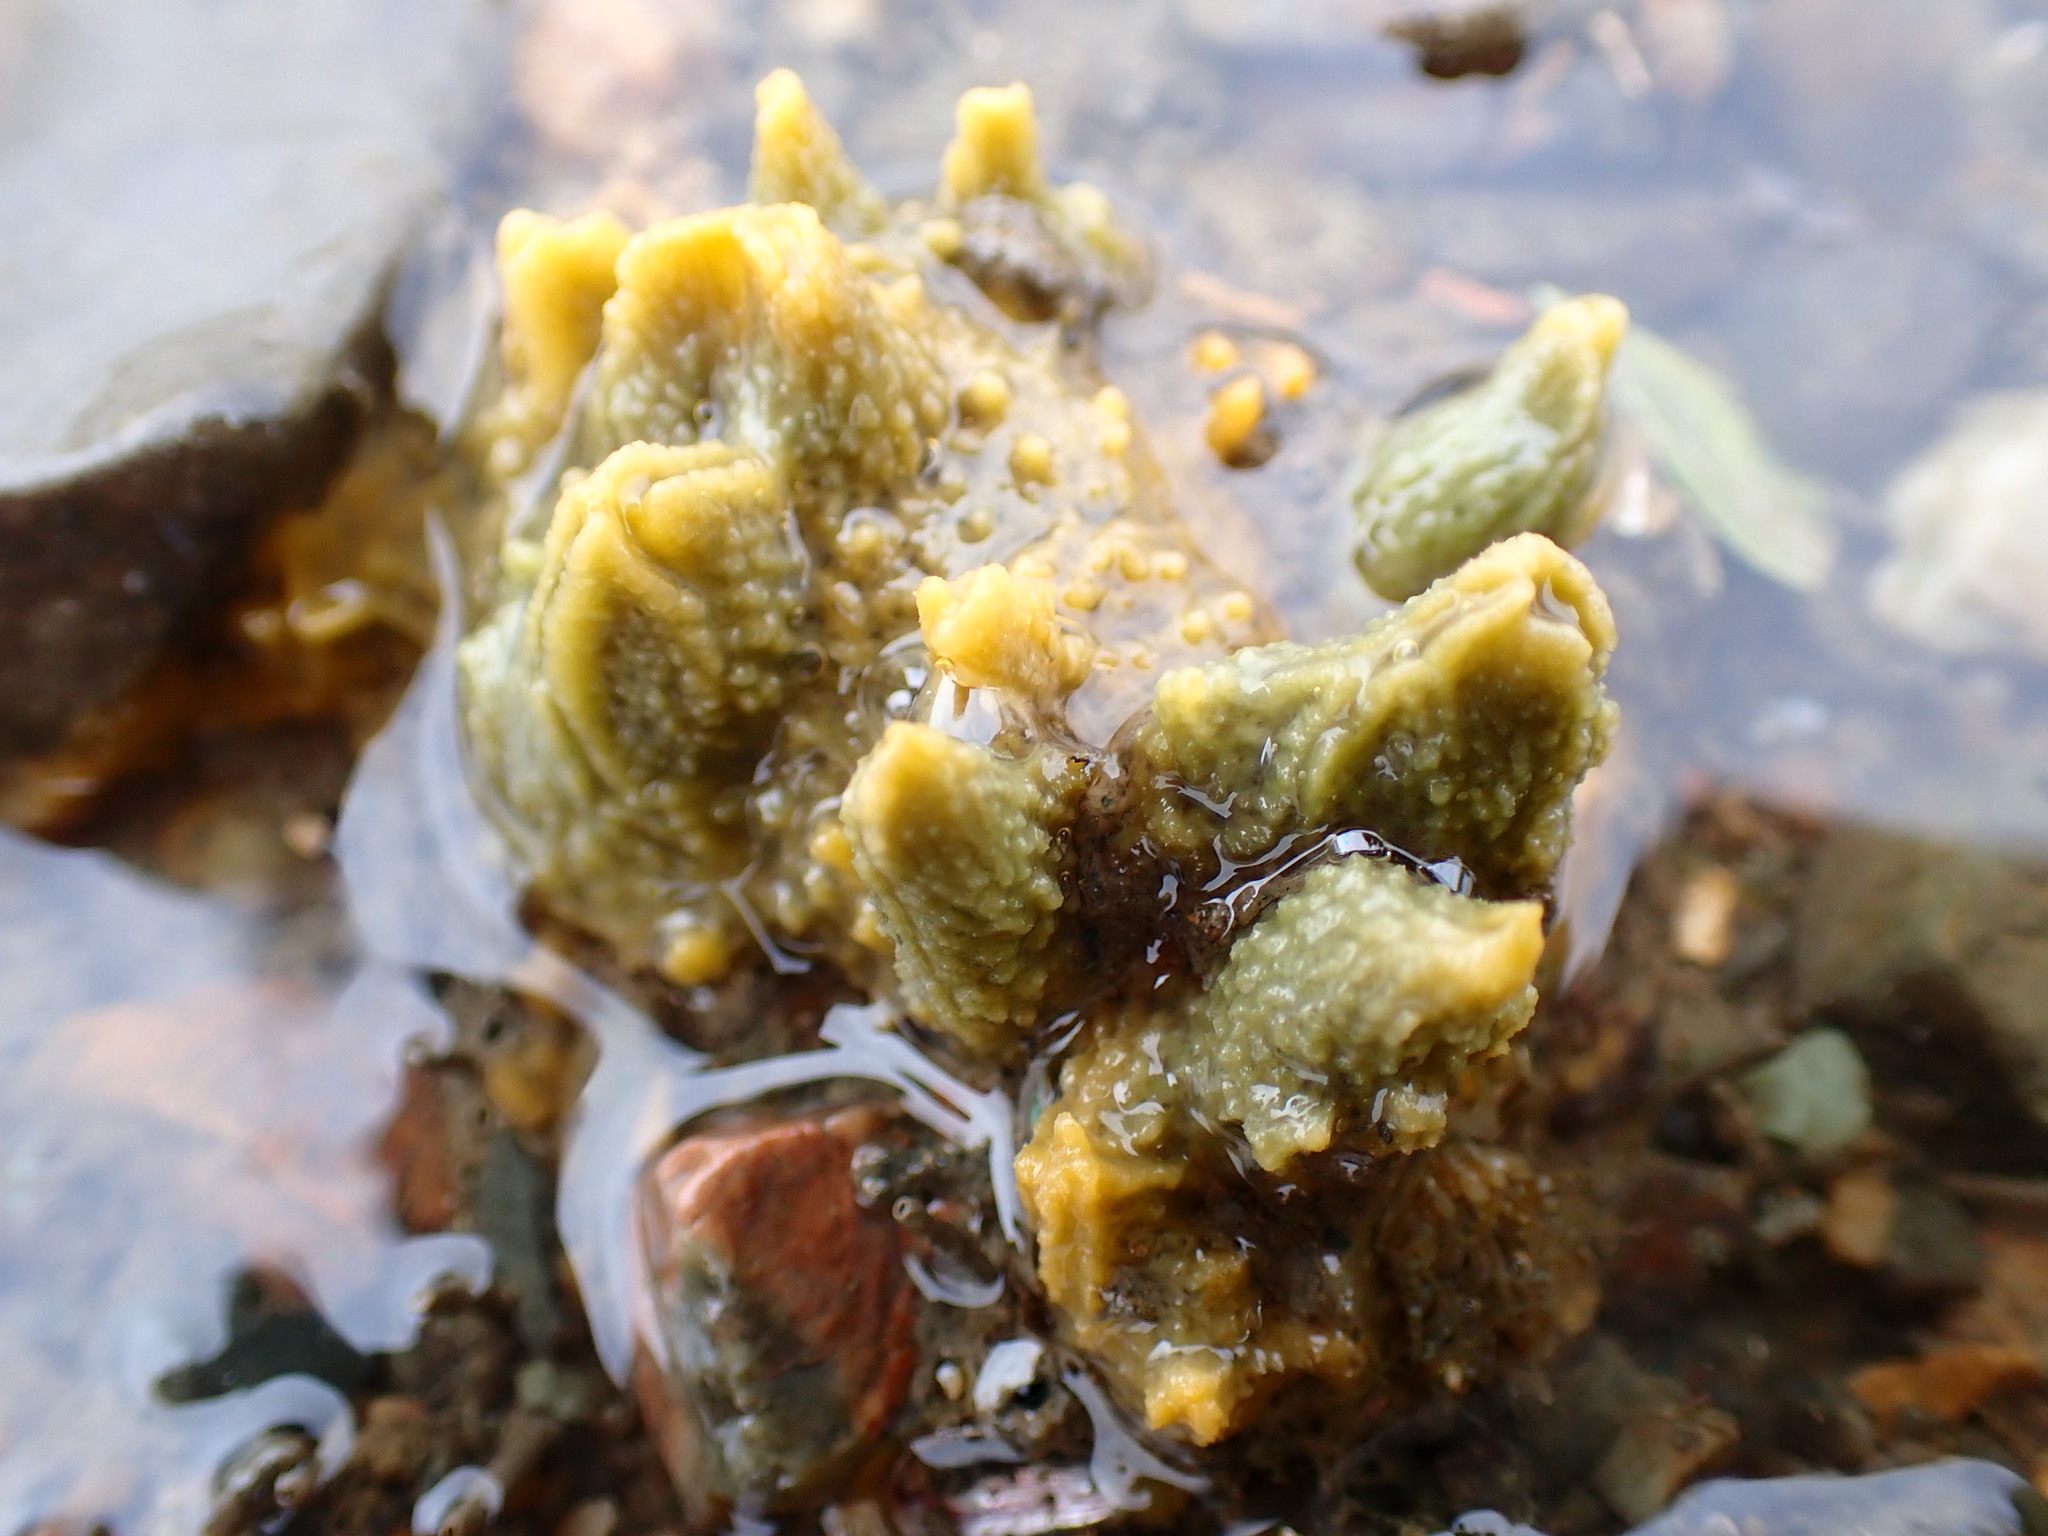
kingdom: Animalia
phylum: Porifera
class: Demospongiae
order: Suberitida
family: Halichondriidae
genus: Hymeniacidon
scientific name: Hymeniacidon perlevis
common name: Crumb-of-bread sponge
